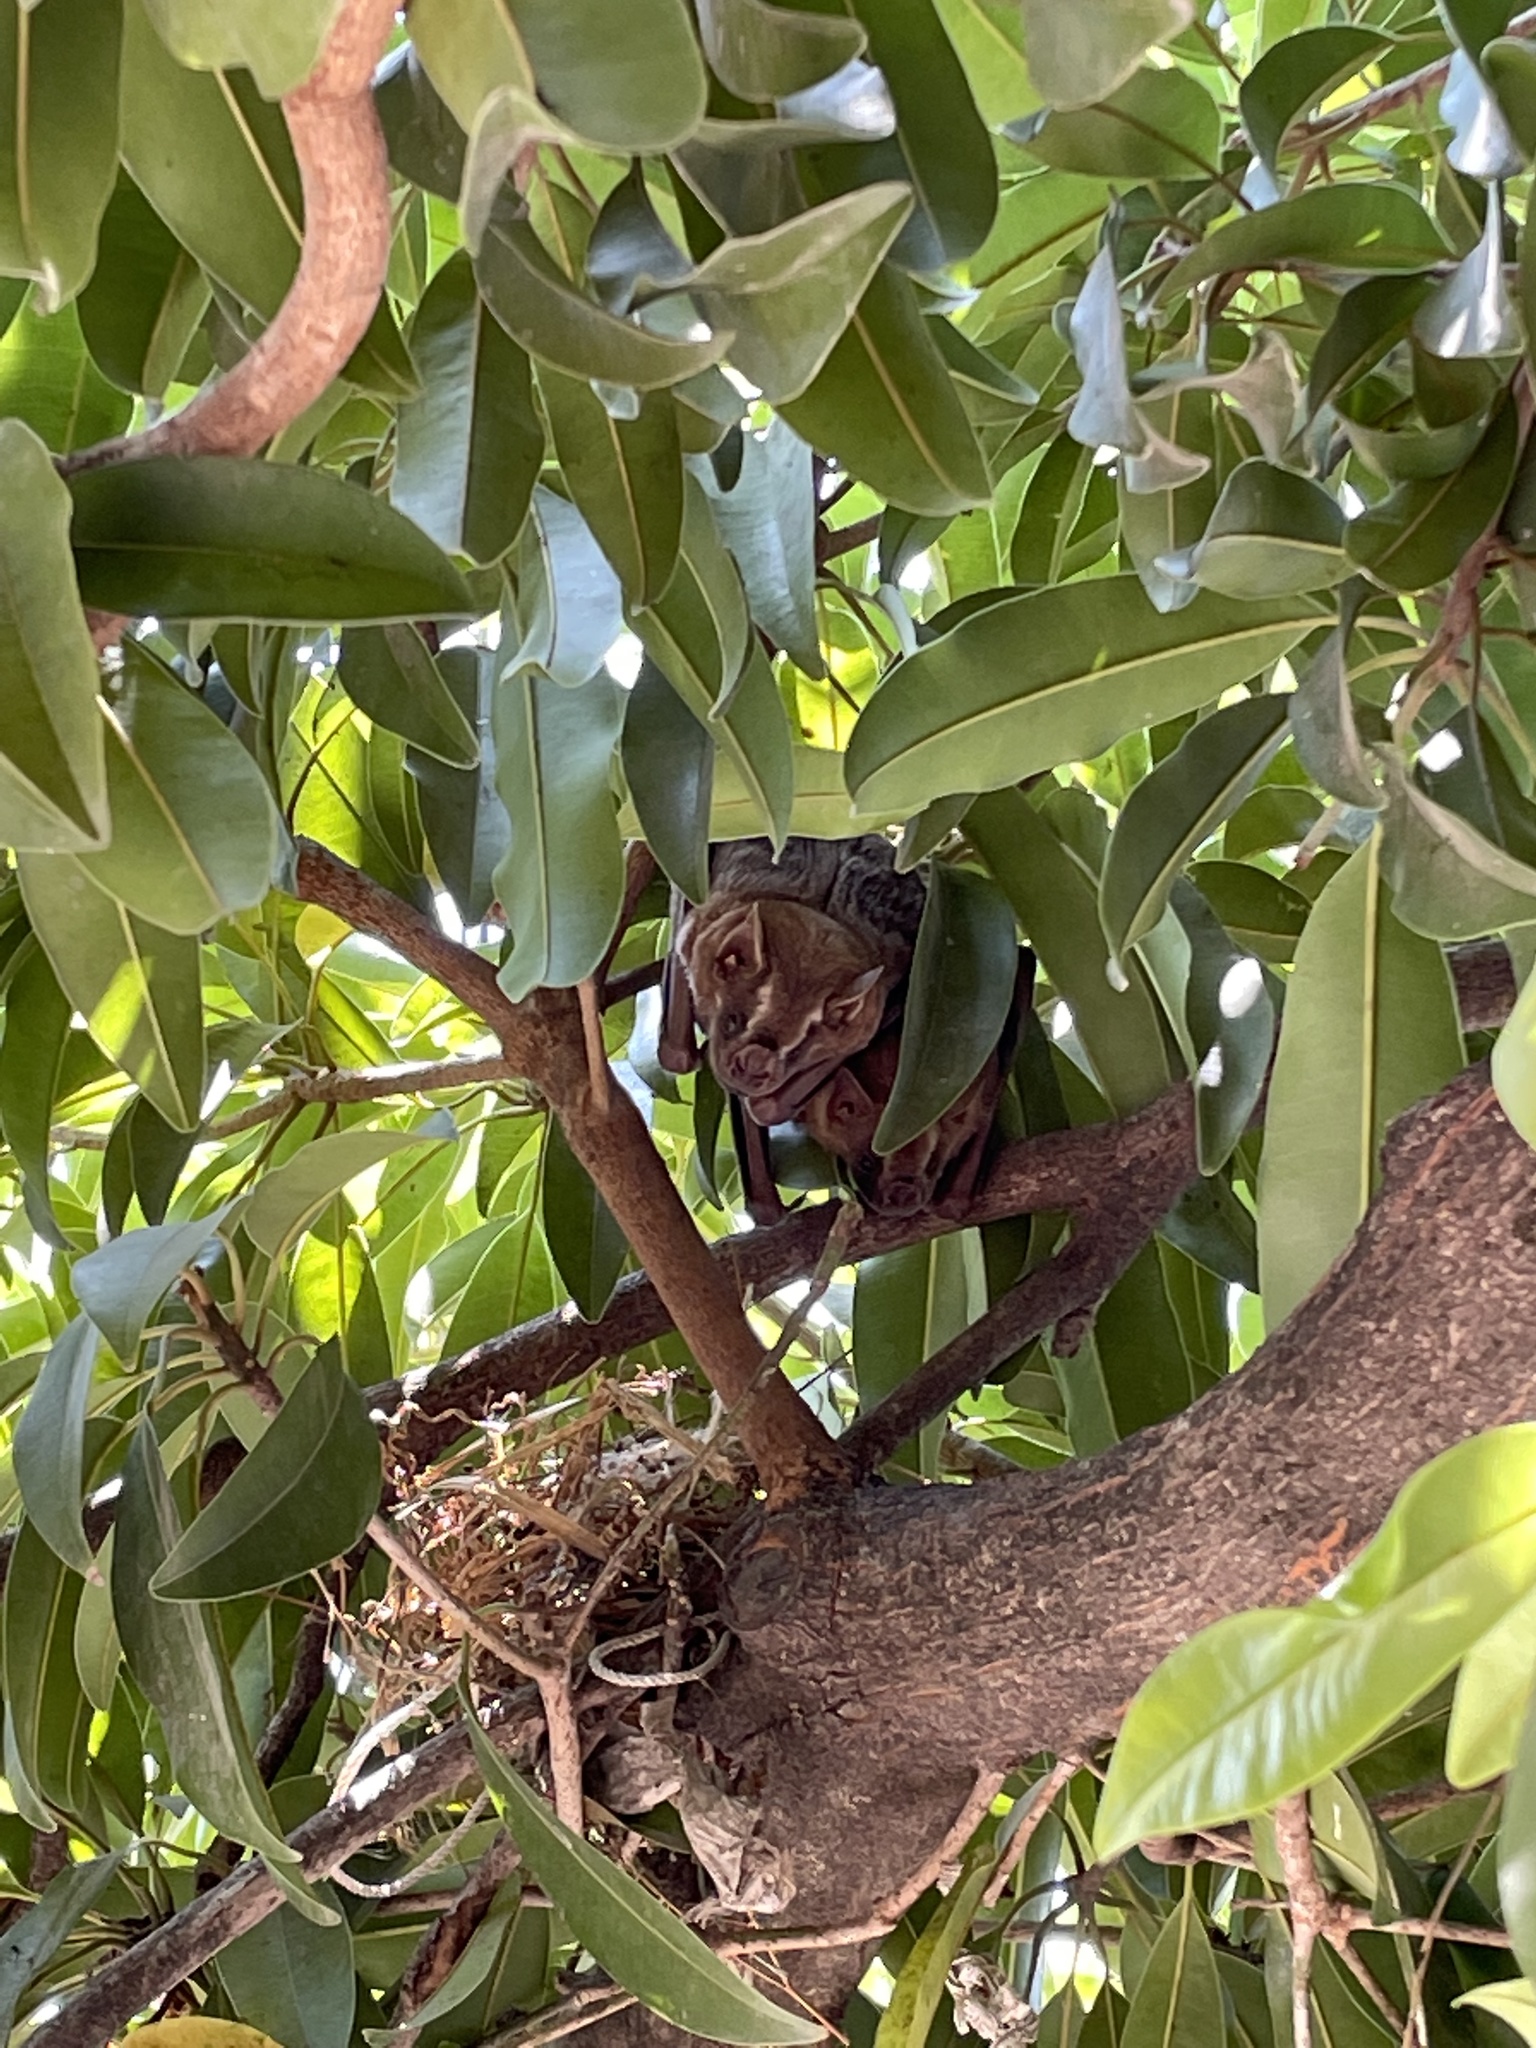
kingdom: Animalia
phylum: Chordata
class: Mammalia
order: Chiroptera
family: Phyllostomidae
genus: Artibeus
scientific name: Artibeus lituratus
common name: Great fruit-eating bat
